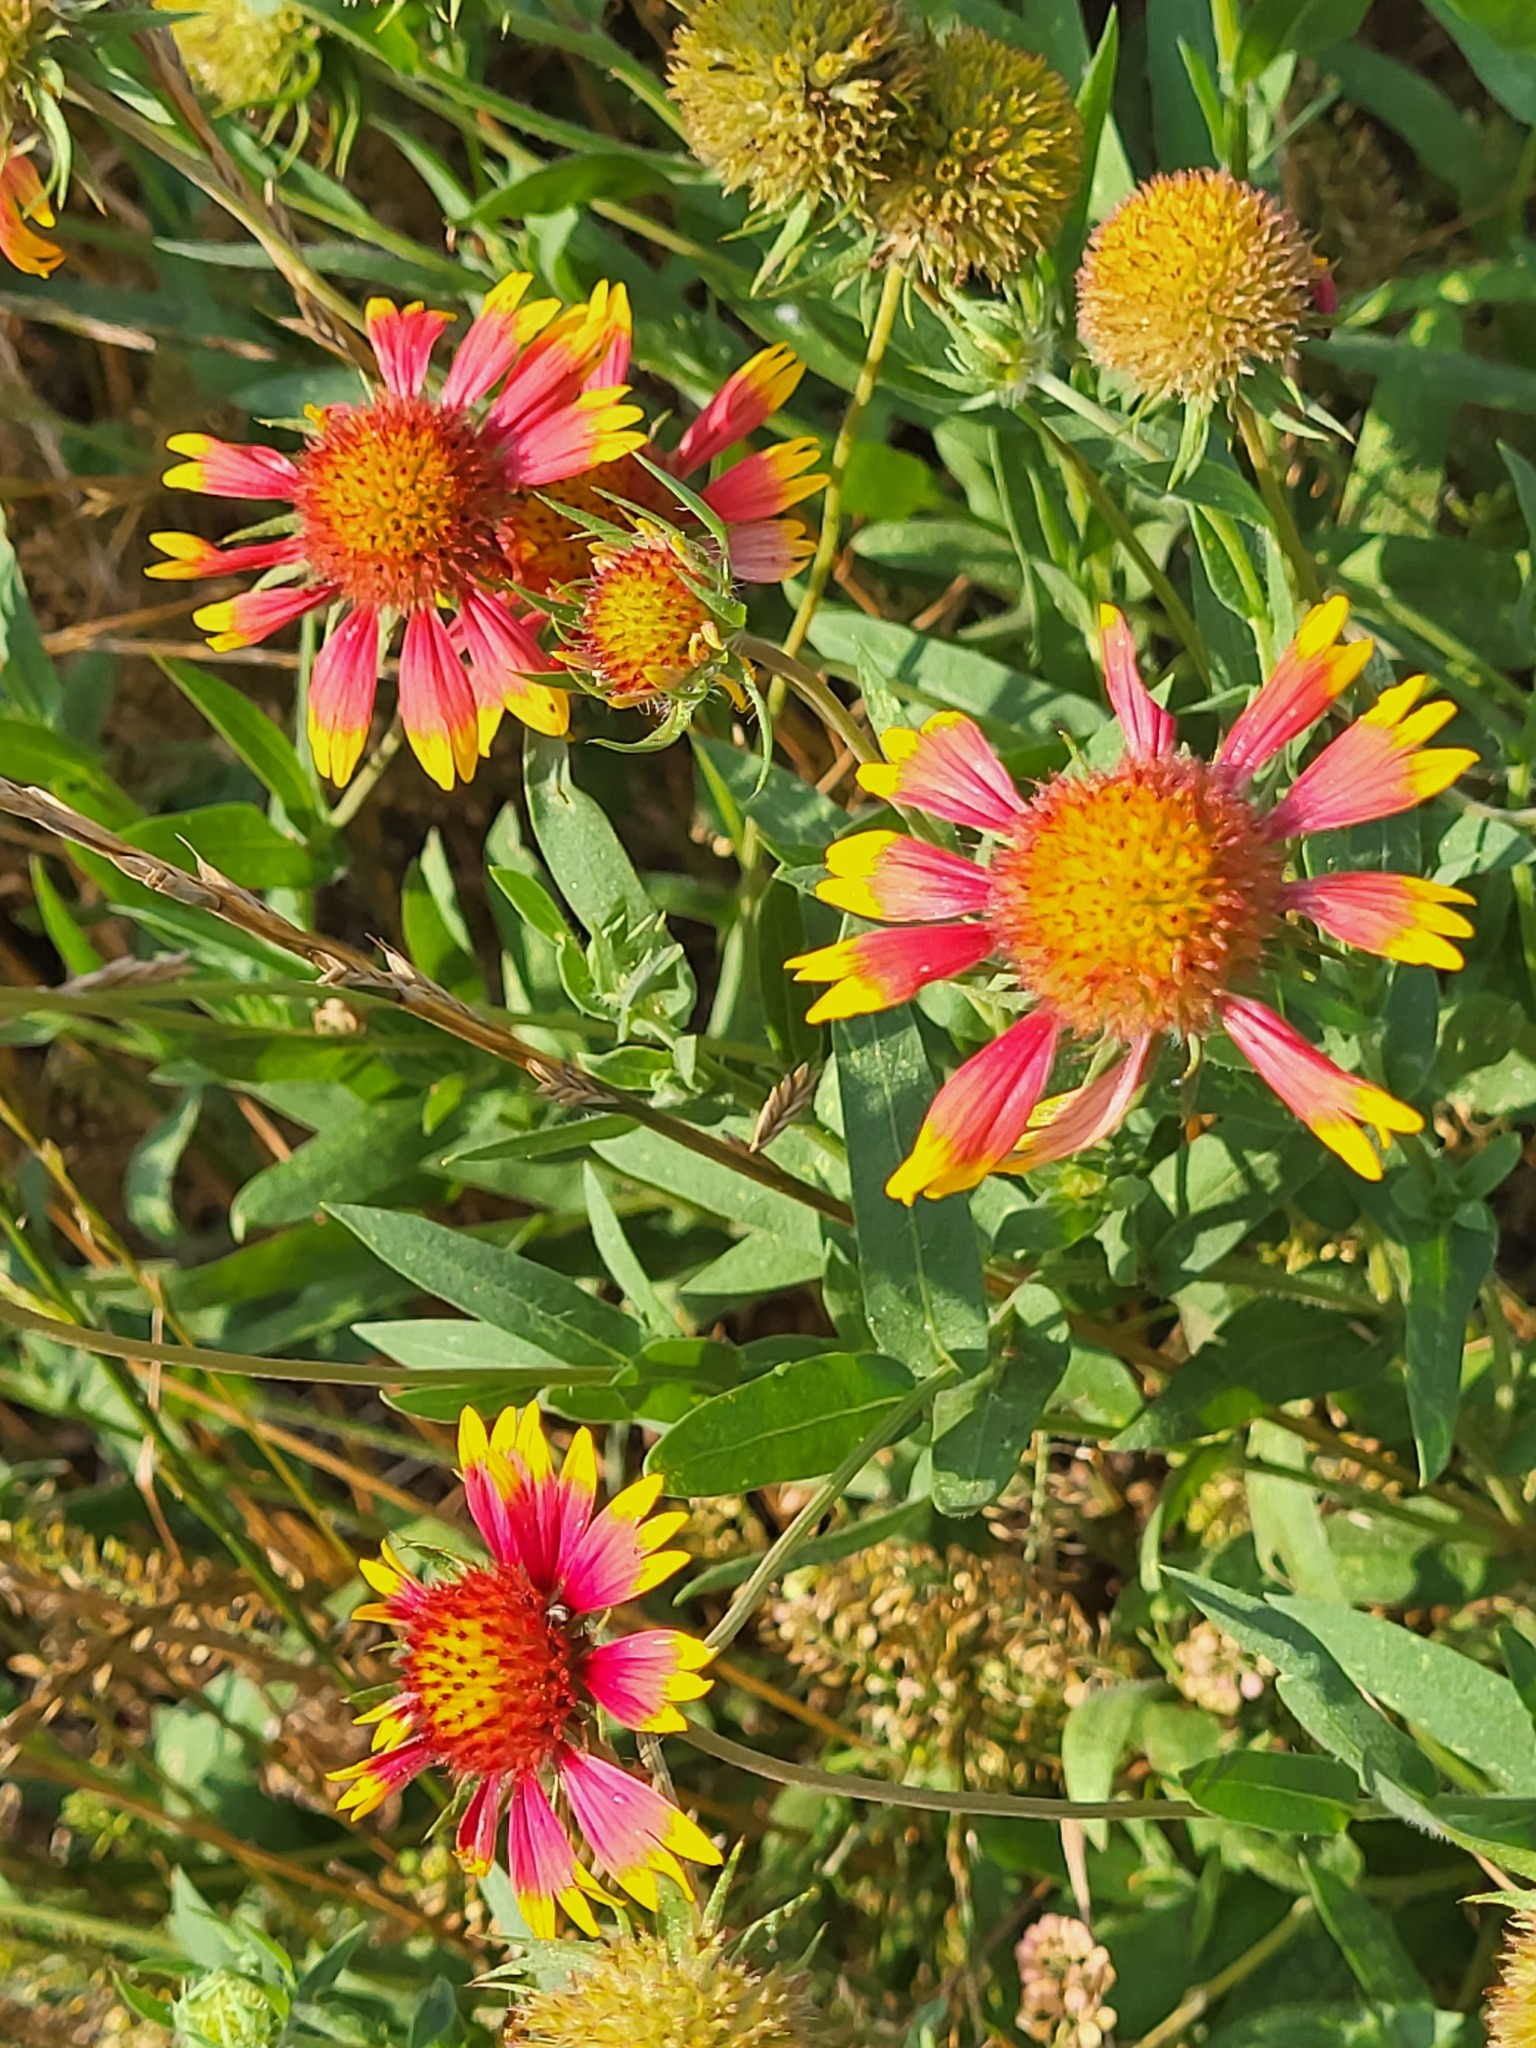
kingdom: Plantae
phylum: Tracheophyta
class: Magnoliopsida
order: Asterales
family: Asteraceae
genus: Gaillardia
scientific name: Gaillardia pulchella
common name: Firewheel
